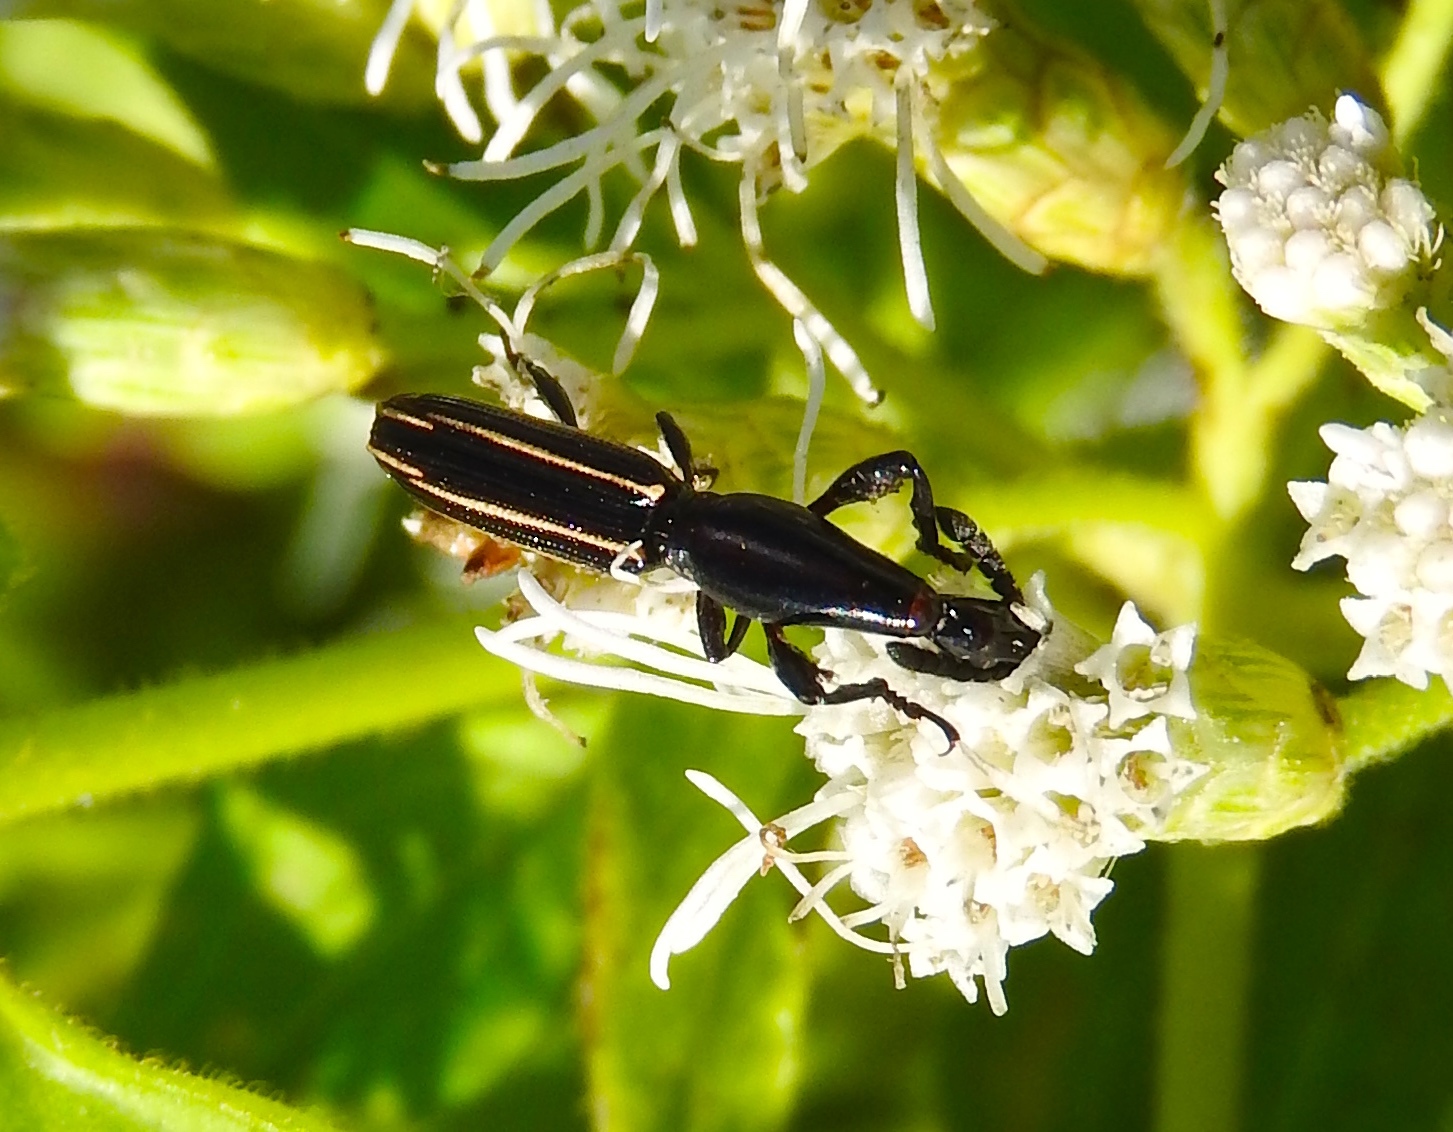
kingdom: Animalia
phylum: Arthropoda
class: Insecta
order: Coleoptera
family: Brentidae
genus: Brentus
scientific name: Brentus anchorago
